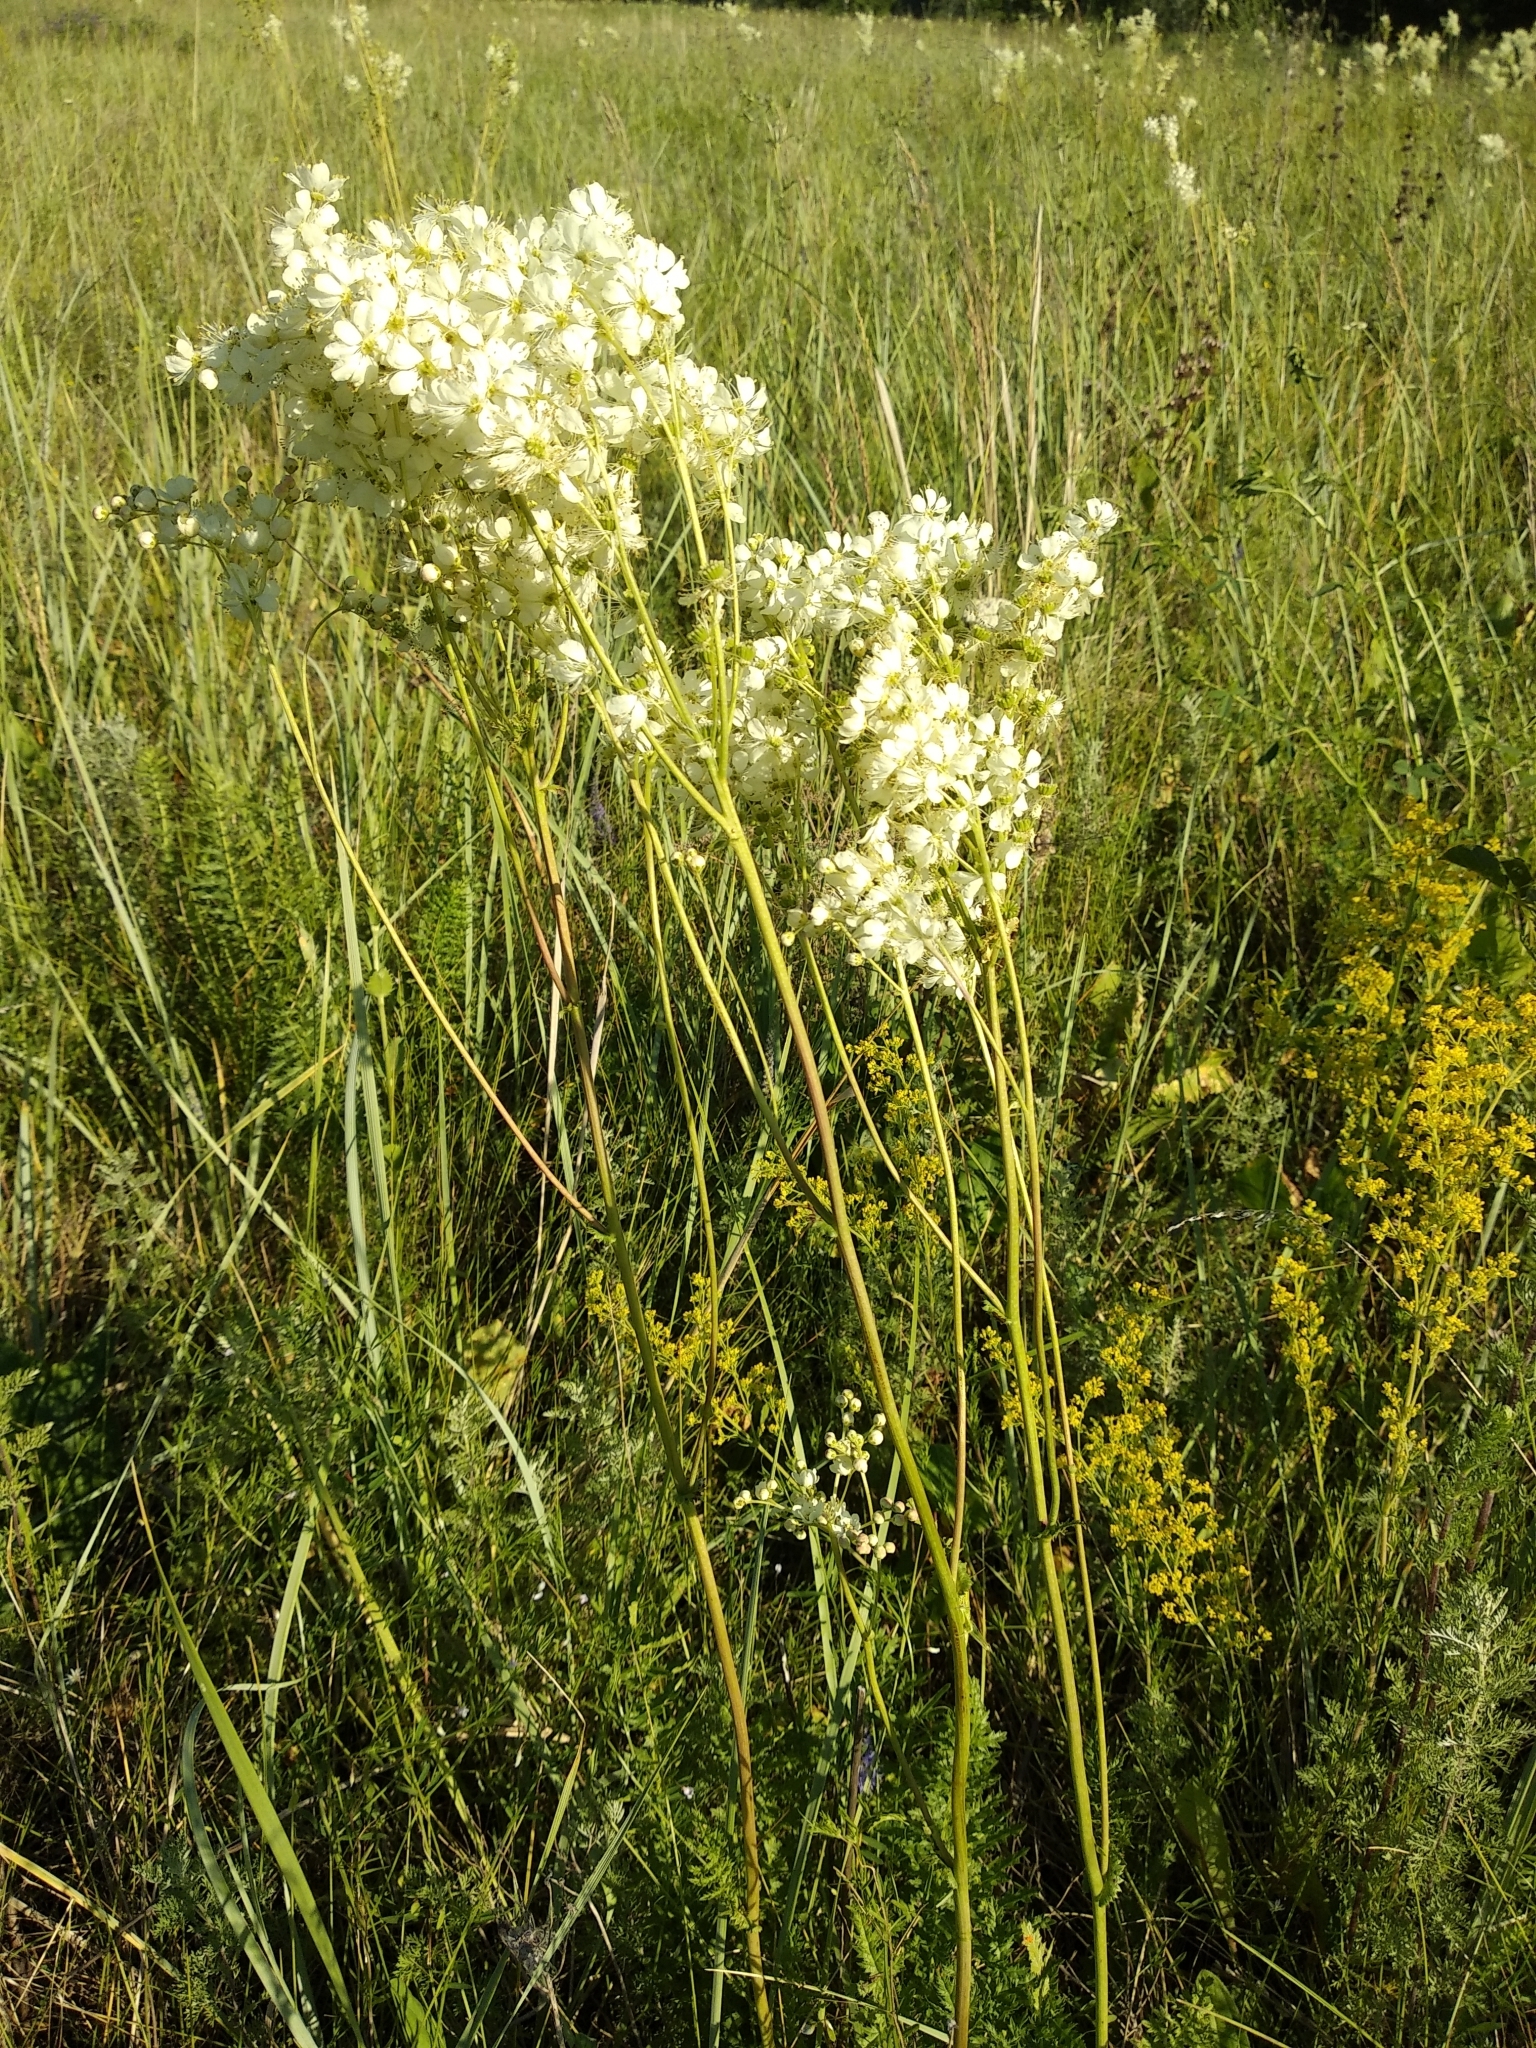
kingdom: Plantae
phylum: Tracheophyta
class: Magnoliopsida
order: Rosales
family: Rosaceae
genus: Filipendula
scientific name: Filipendula vulgaris
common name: Dropwort
